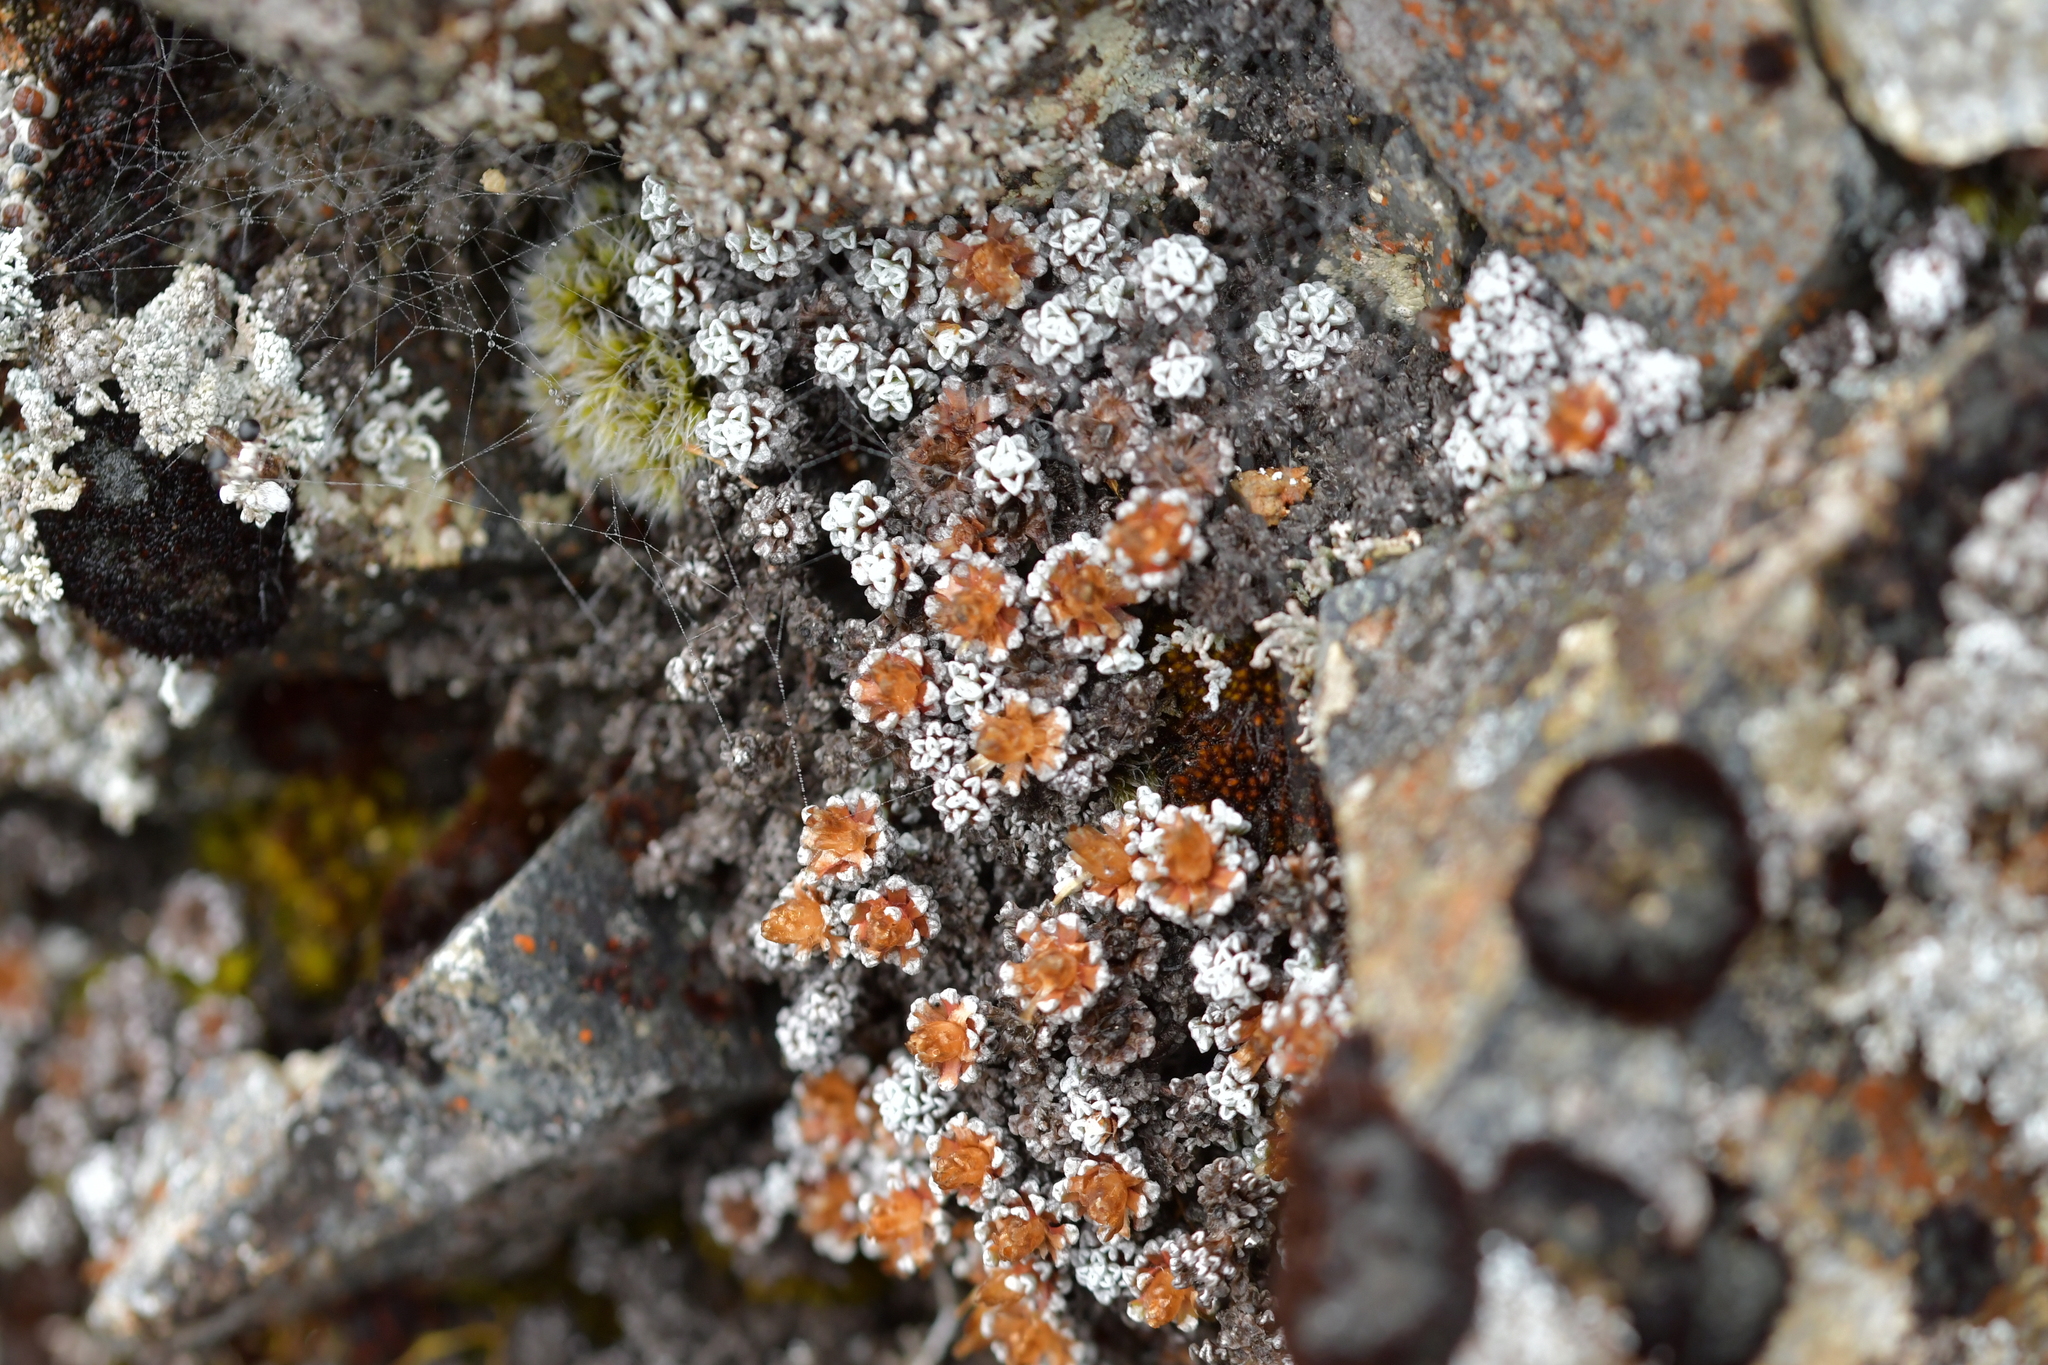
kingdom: Plantae
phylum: Tracheophyta
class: Magnoliopsida
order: Asterales
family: Asteraceae
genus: Raoulia
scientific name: Raoulia albosericea
